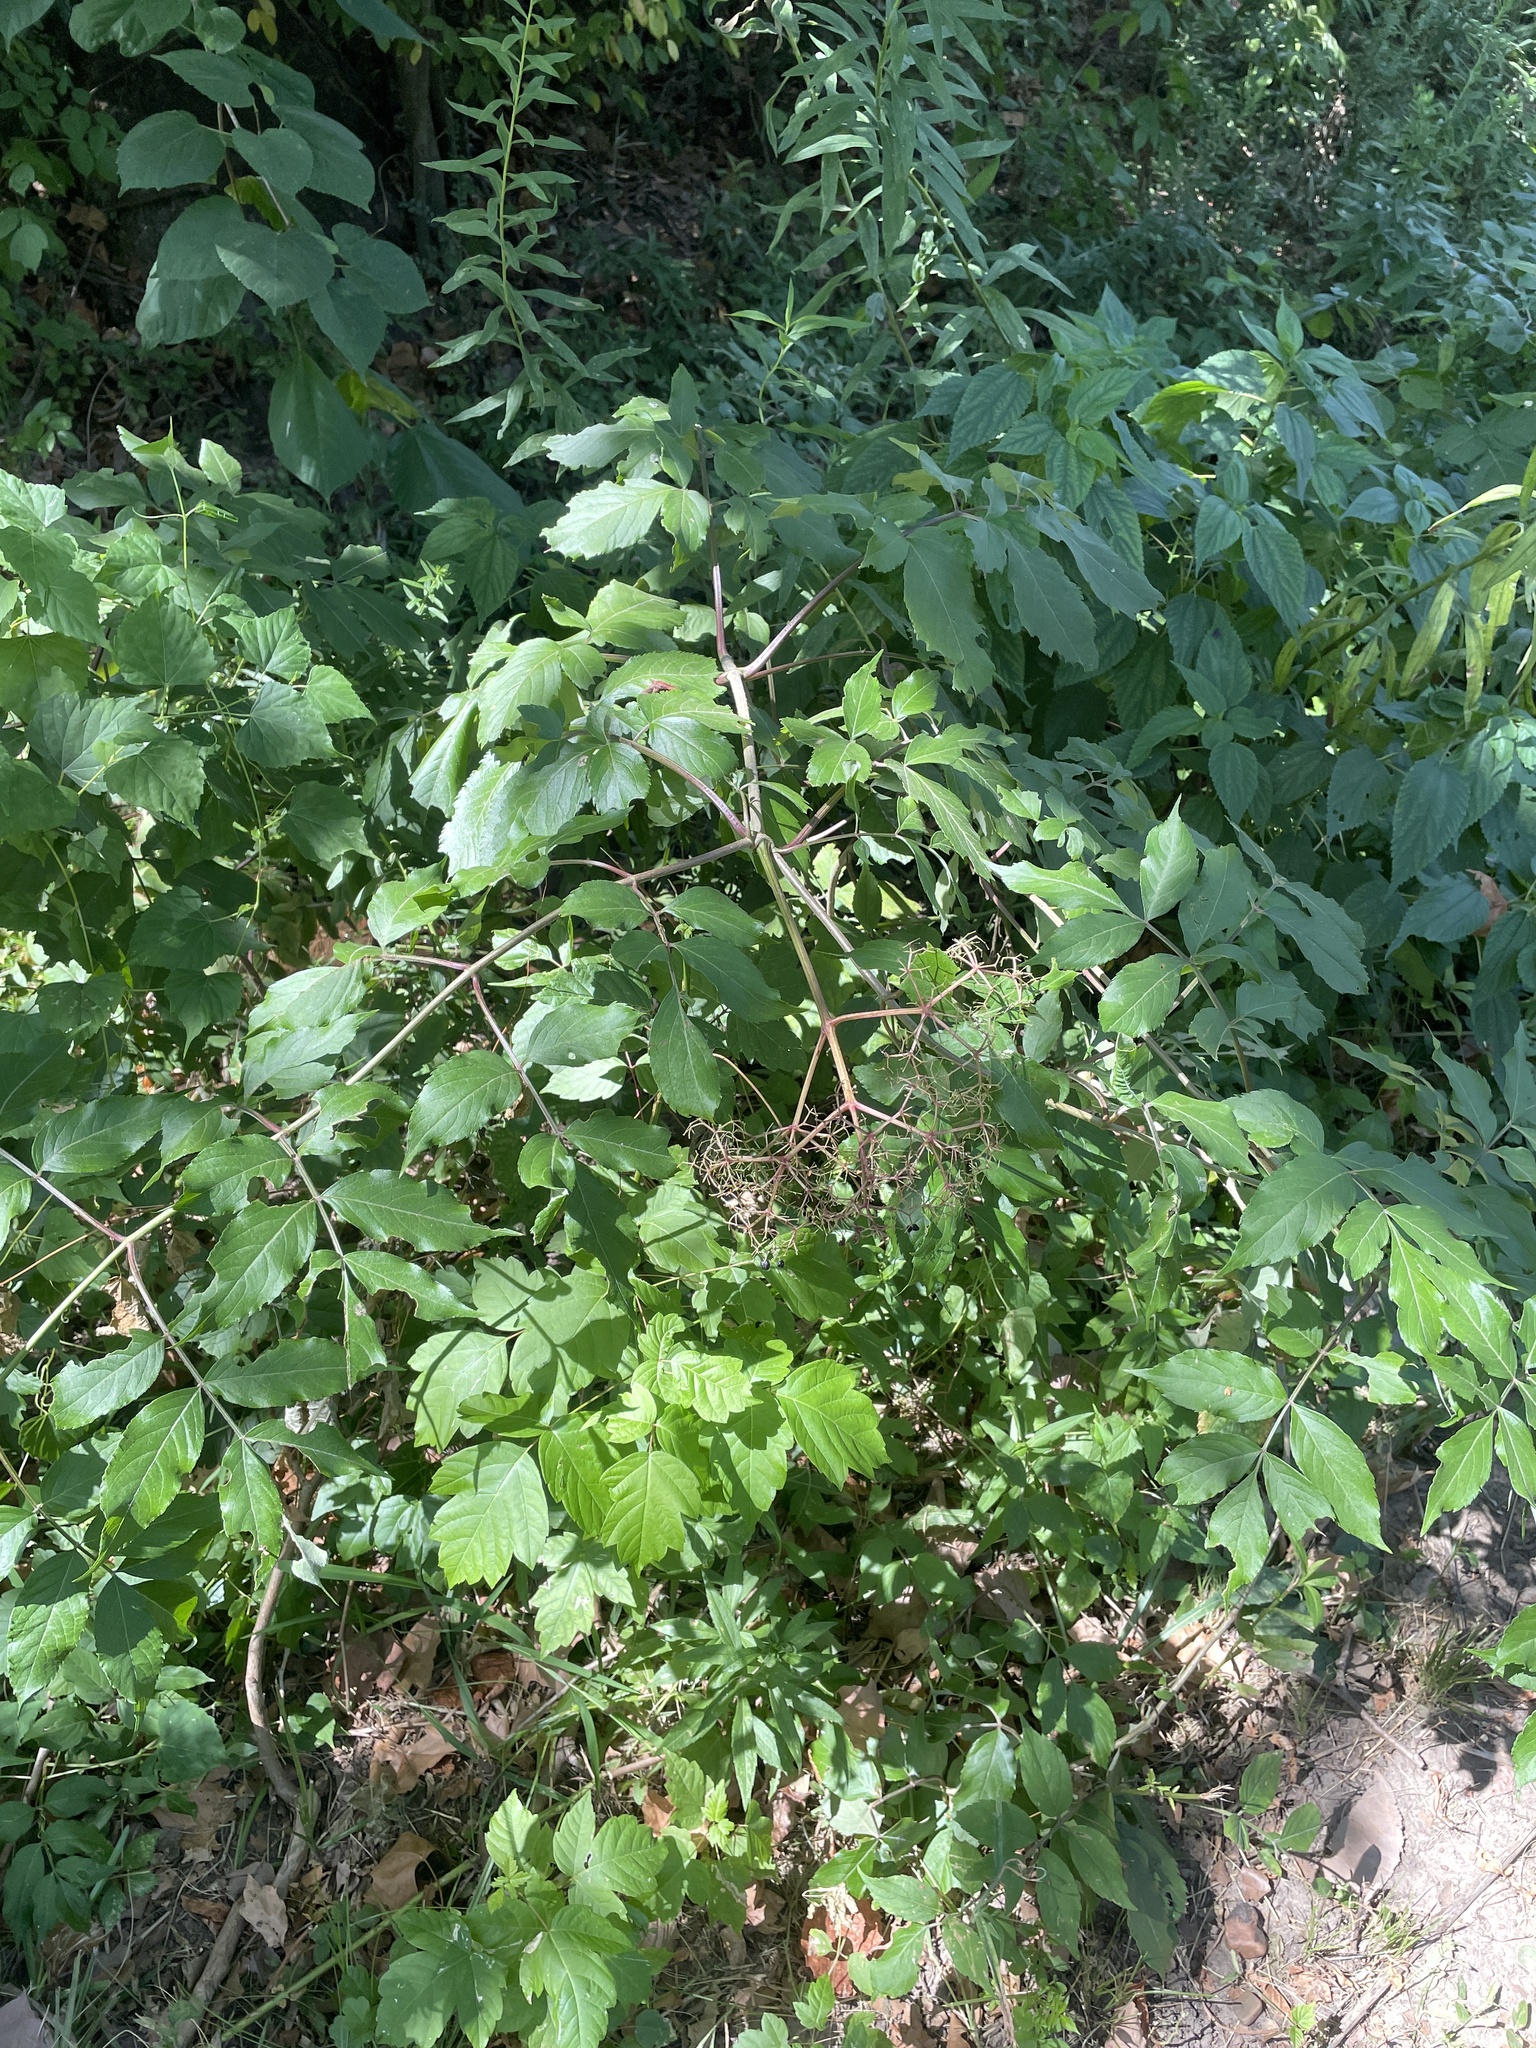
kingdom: Plantae
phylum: Tracheophyta
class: Magnoliopsida
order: Dipsacales
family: Viburnaceae
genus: Sambucus
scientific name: Sambucus canadensis
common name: American elder
